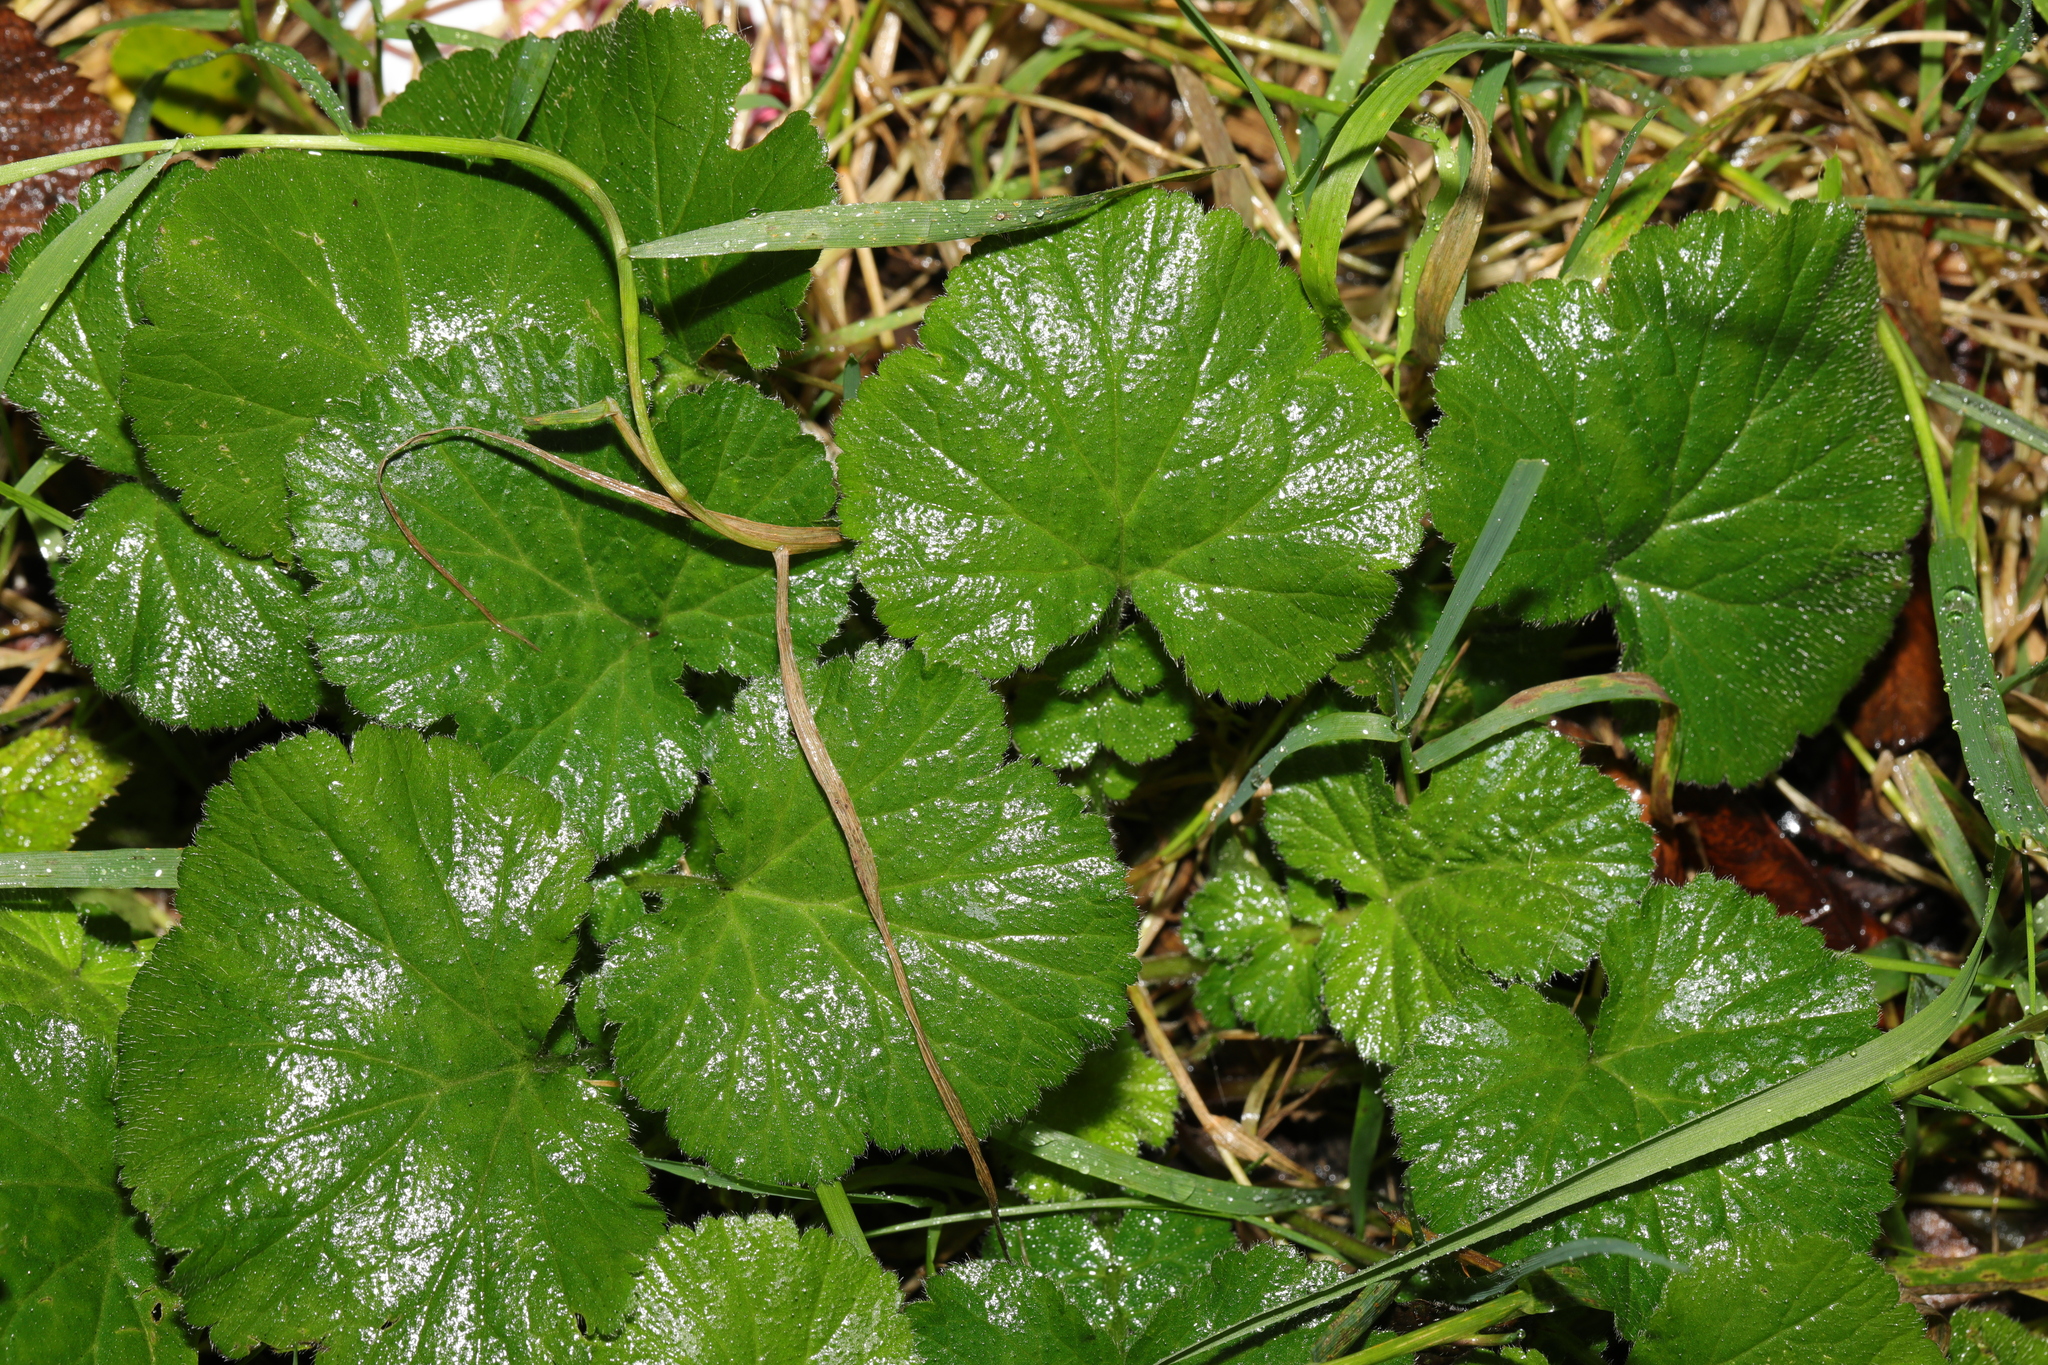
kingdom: Plantae
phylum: Tracheophyta
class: Magnoliopsida
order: Rosales
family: Rosaceae
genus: Geum
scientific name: Geum urbanum
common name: Wood avens
